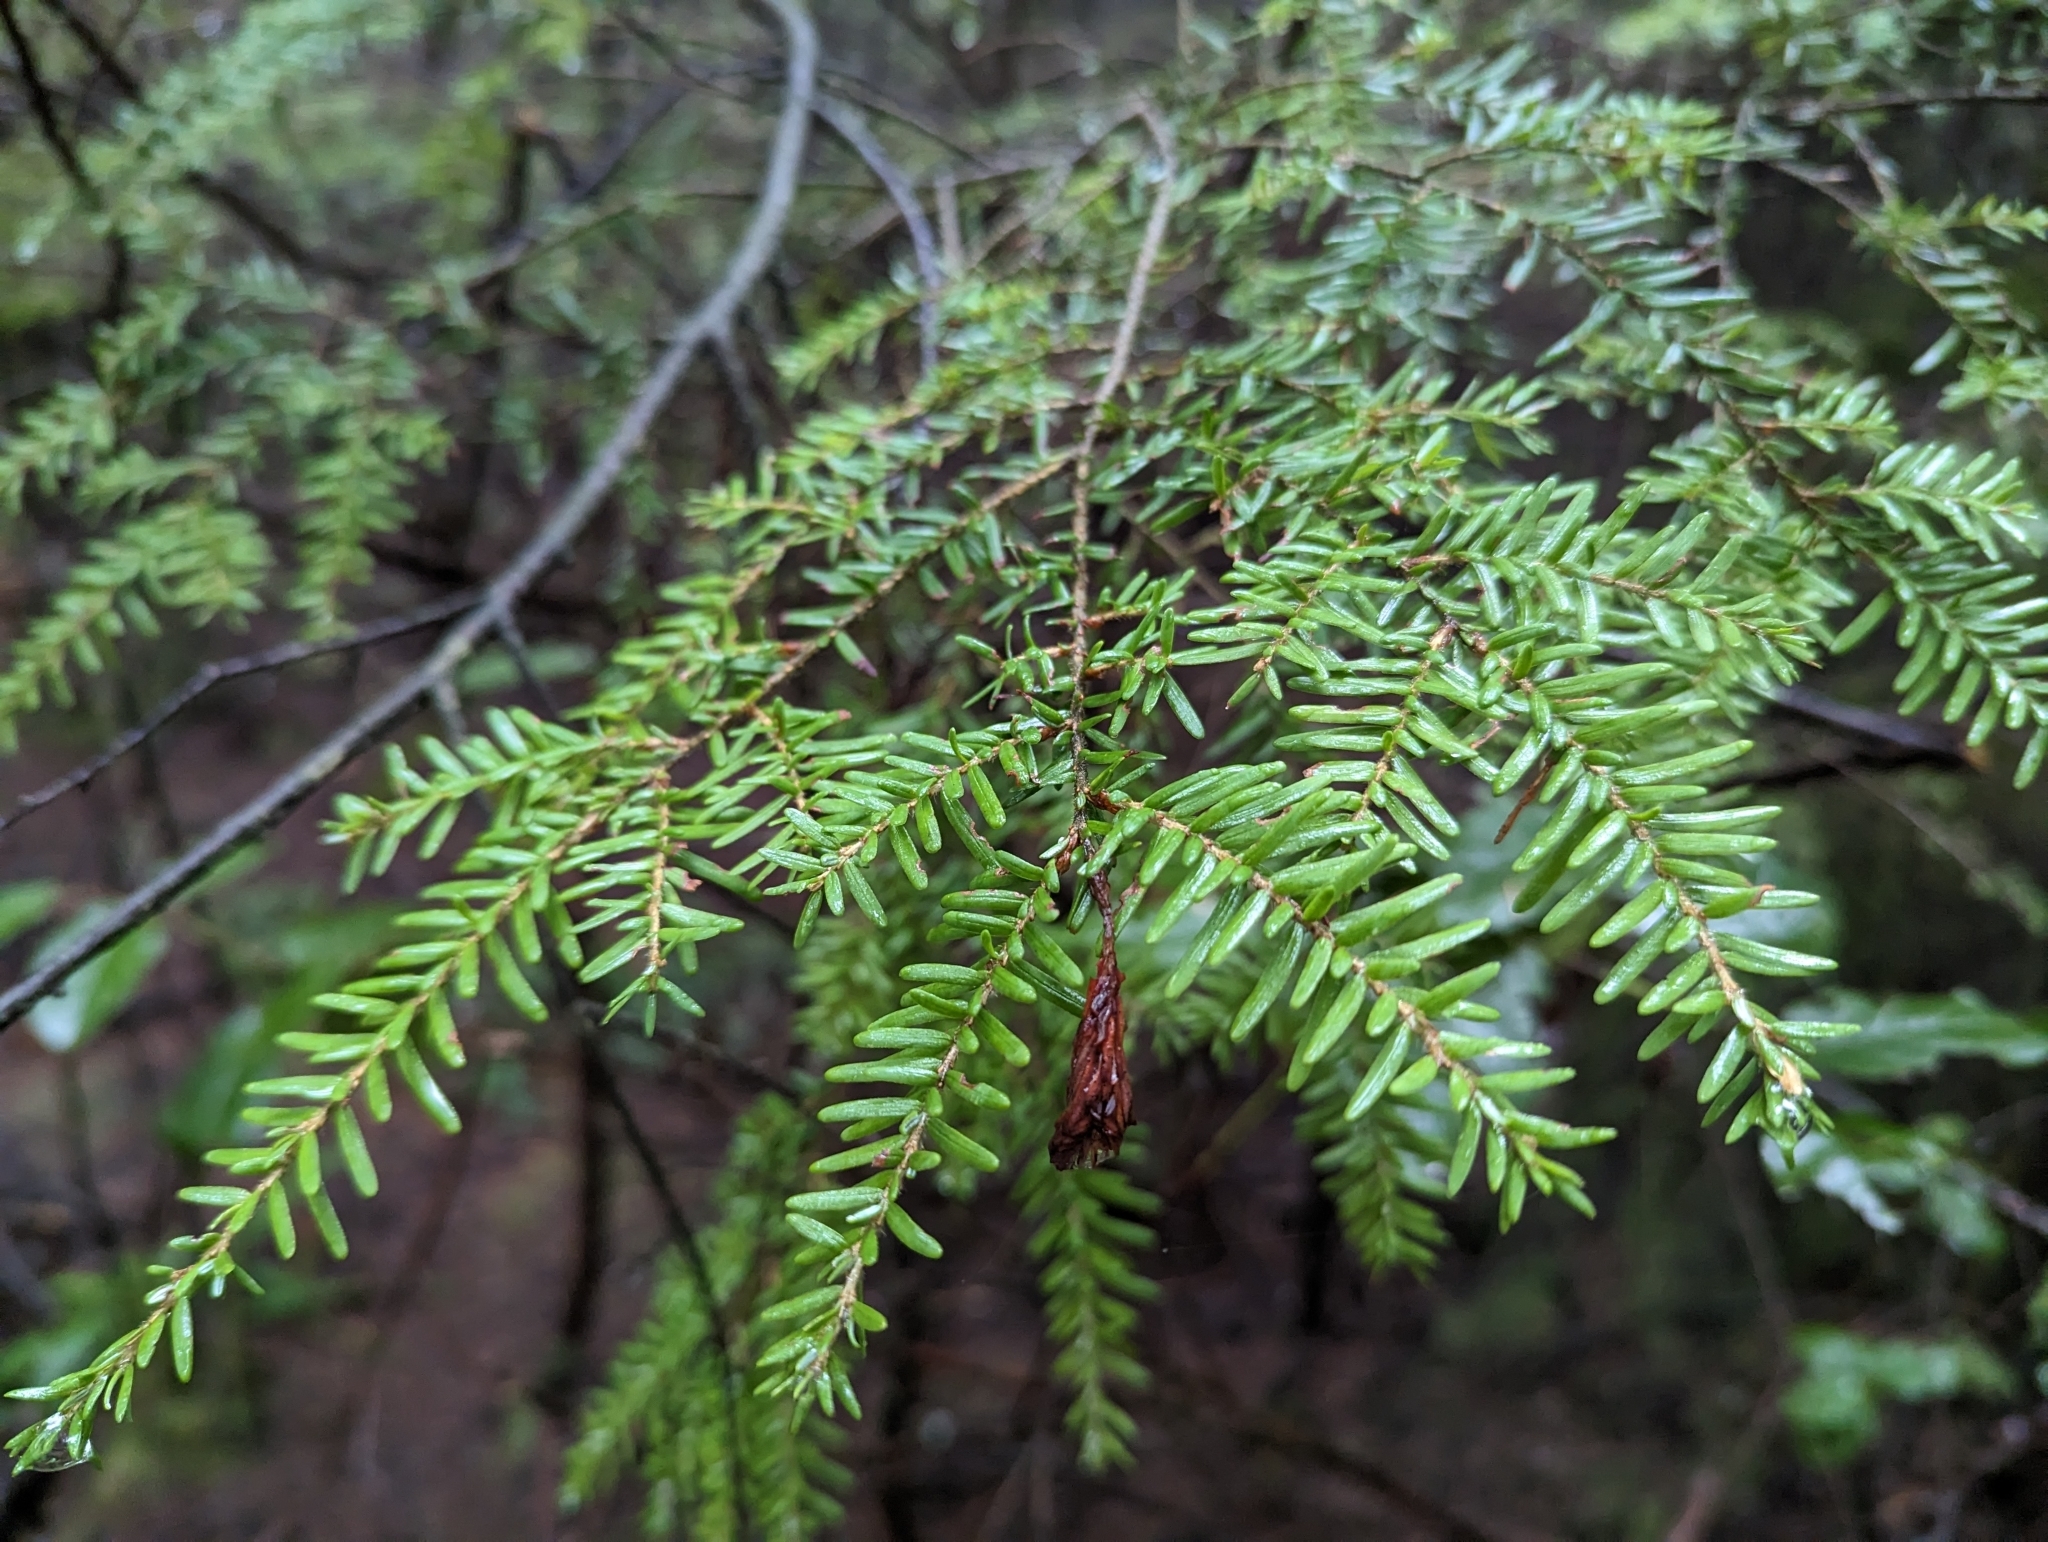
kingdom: Plantae
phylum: Tracheophyta
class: Pinopsida
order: Pinales
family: Pinaceae
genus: Tsuga
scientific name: Tsuga heterophylla
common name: Western hemlock
